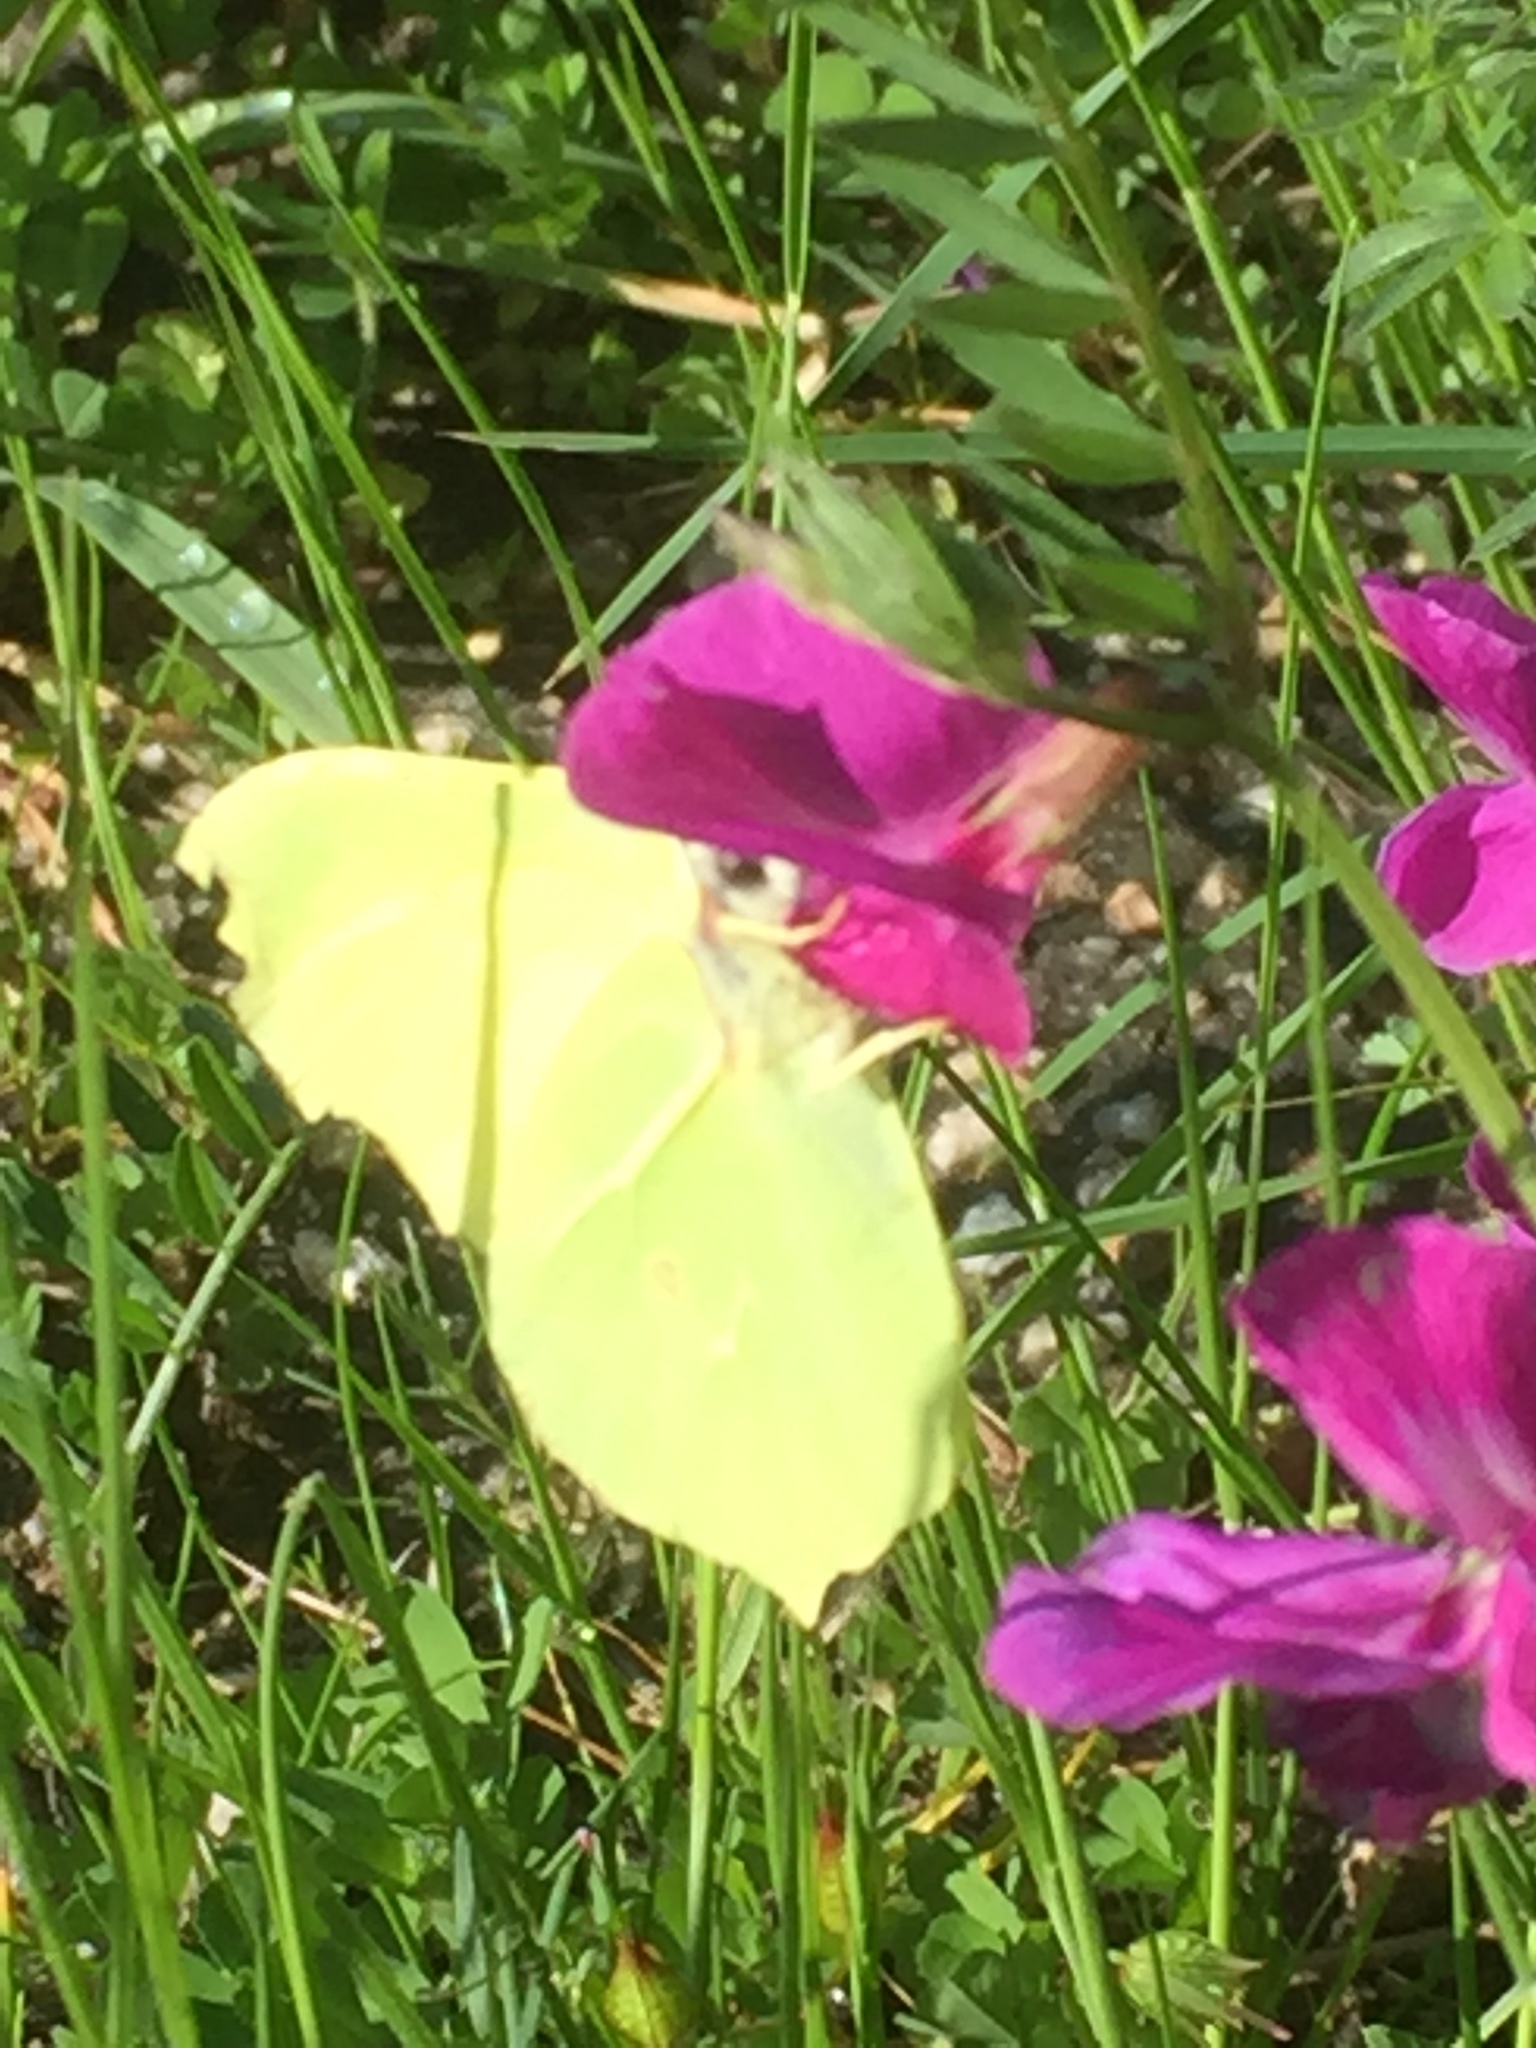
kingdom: Animalia
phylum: Arthropoda
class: Insecta
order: Lepidoptera
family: Pieridae
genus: Gonepteryx
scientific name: Gonepteryx rhamni
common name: Brimstone
